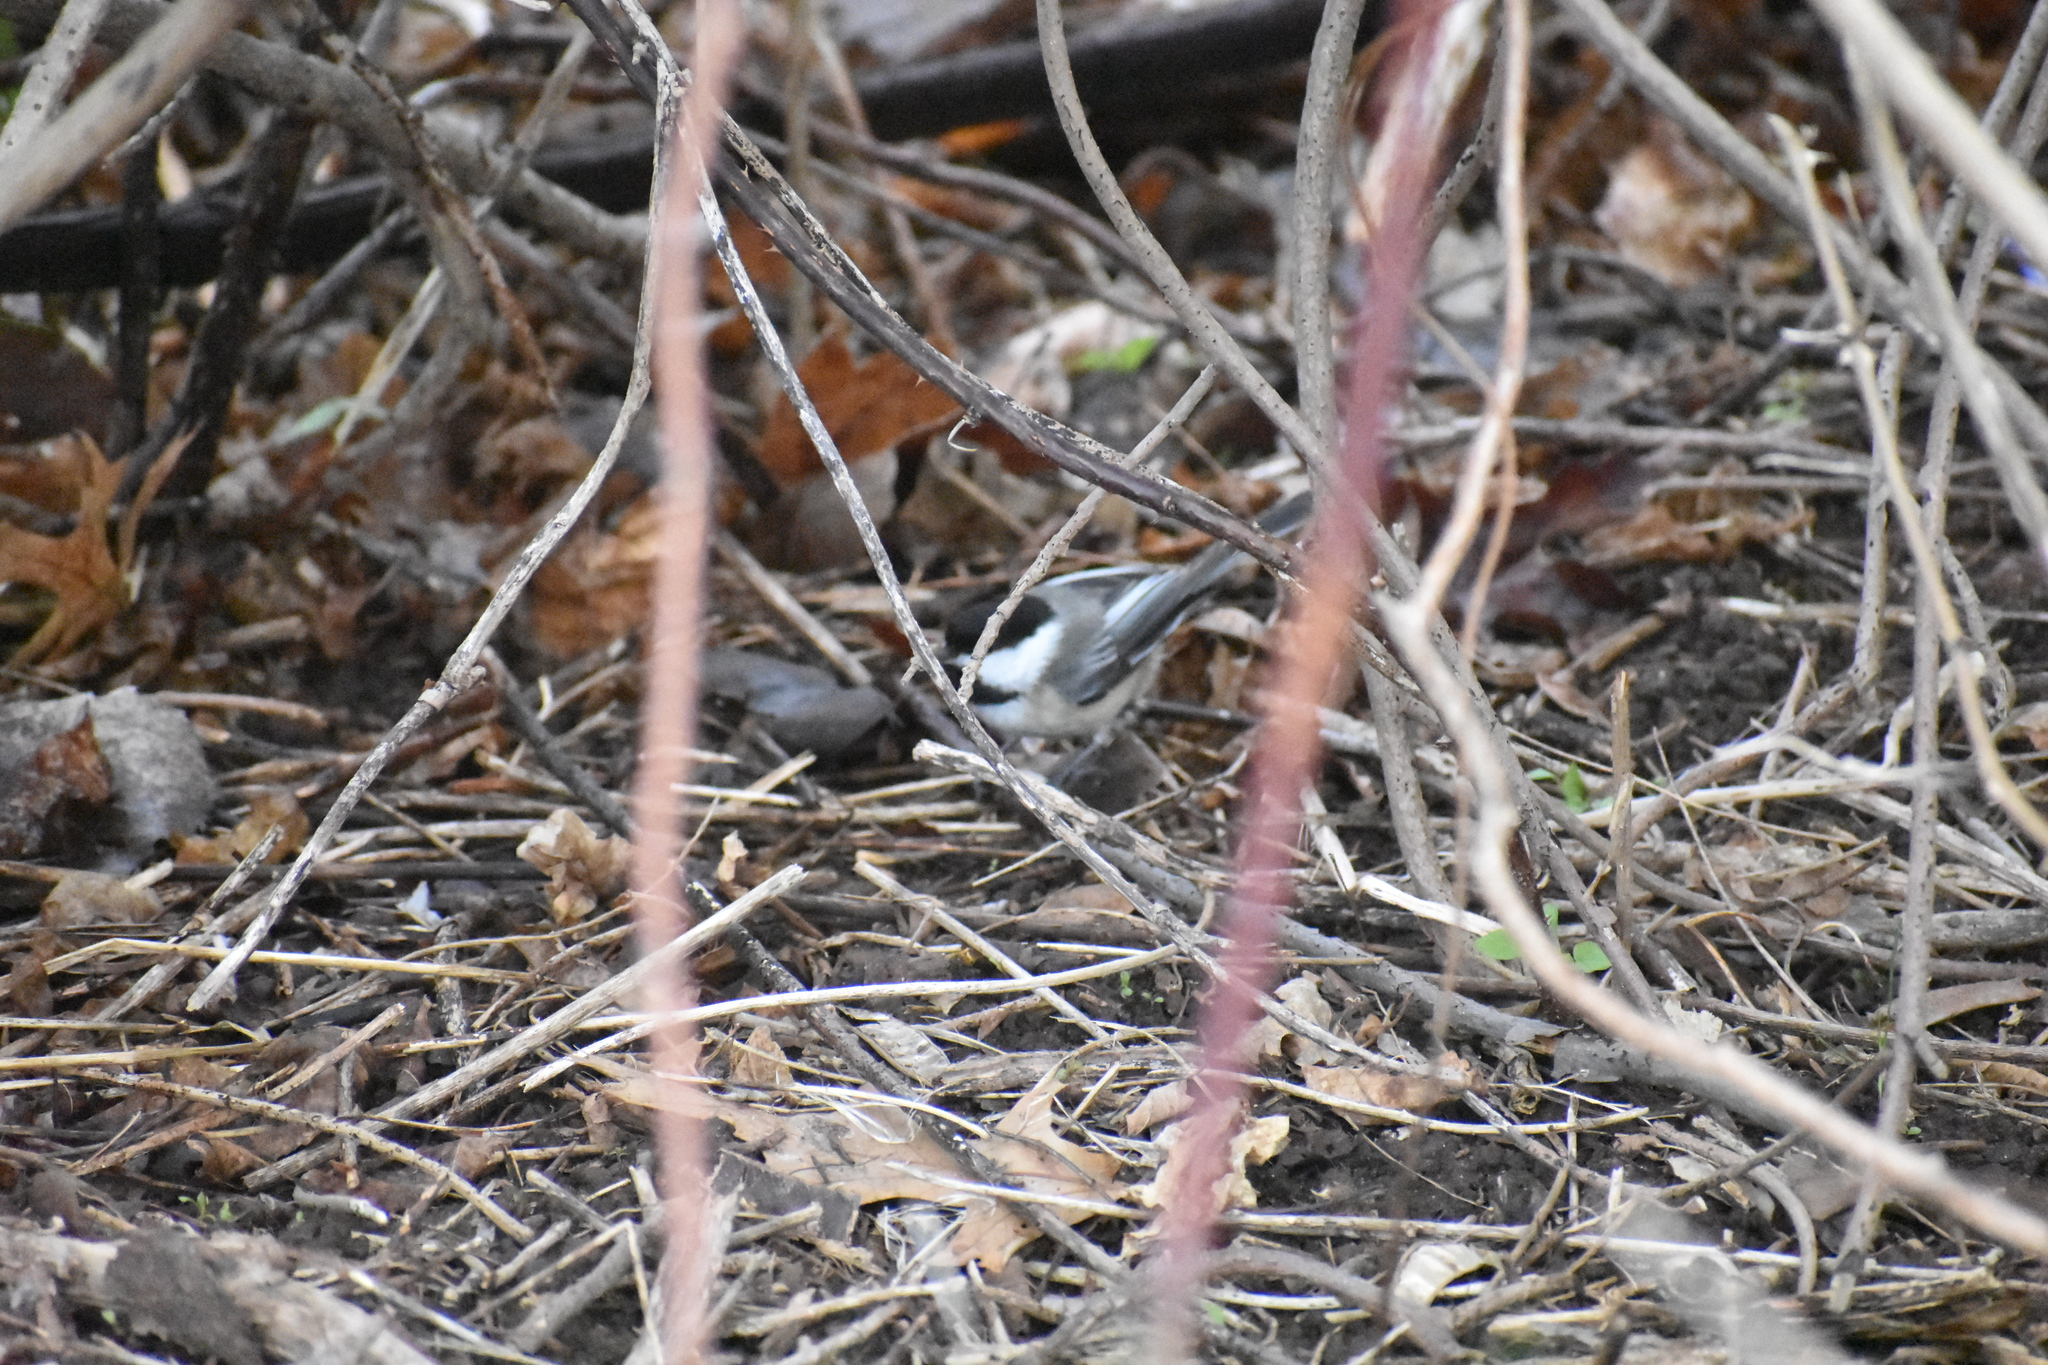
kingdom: Animalia
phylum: Chordata
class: Aves
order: Passeriformes
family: Paridae
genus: Poecile
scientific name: Poecile atricapillus
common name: Black-capped chickadee
